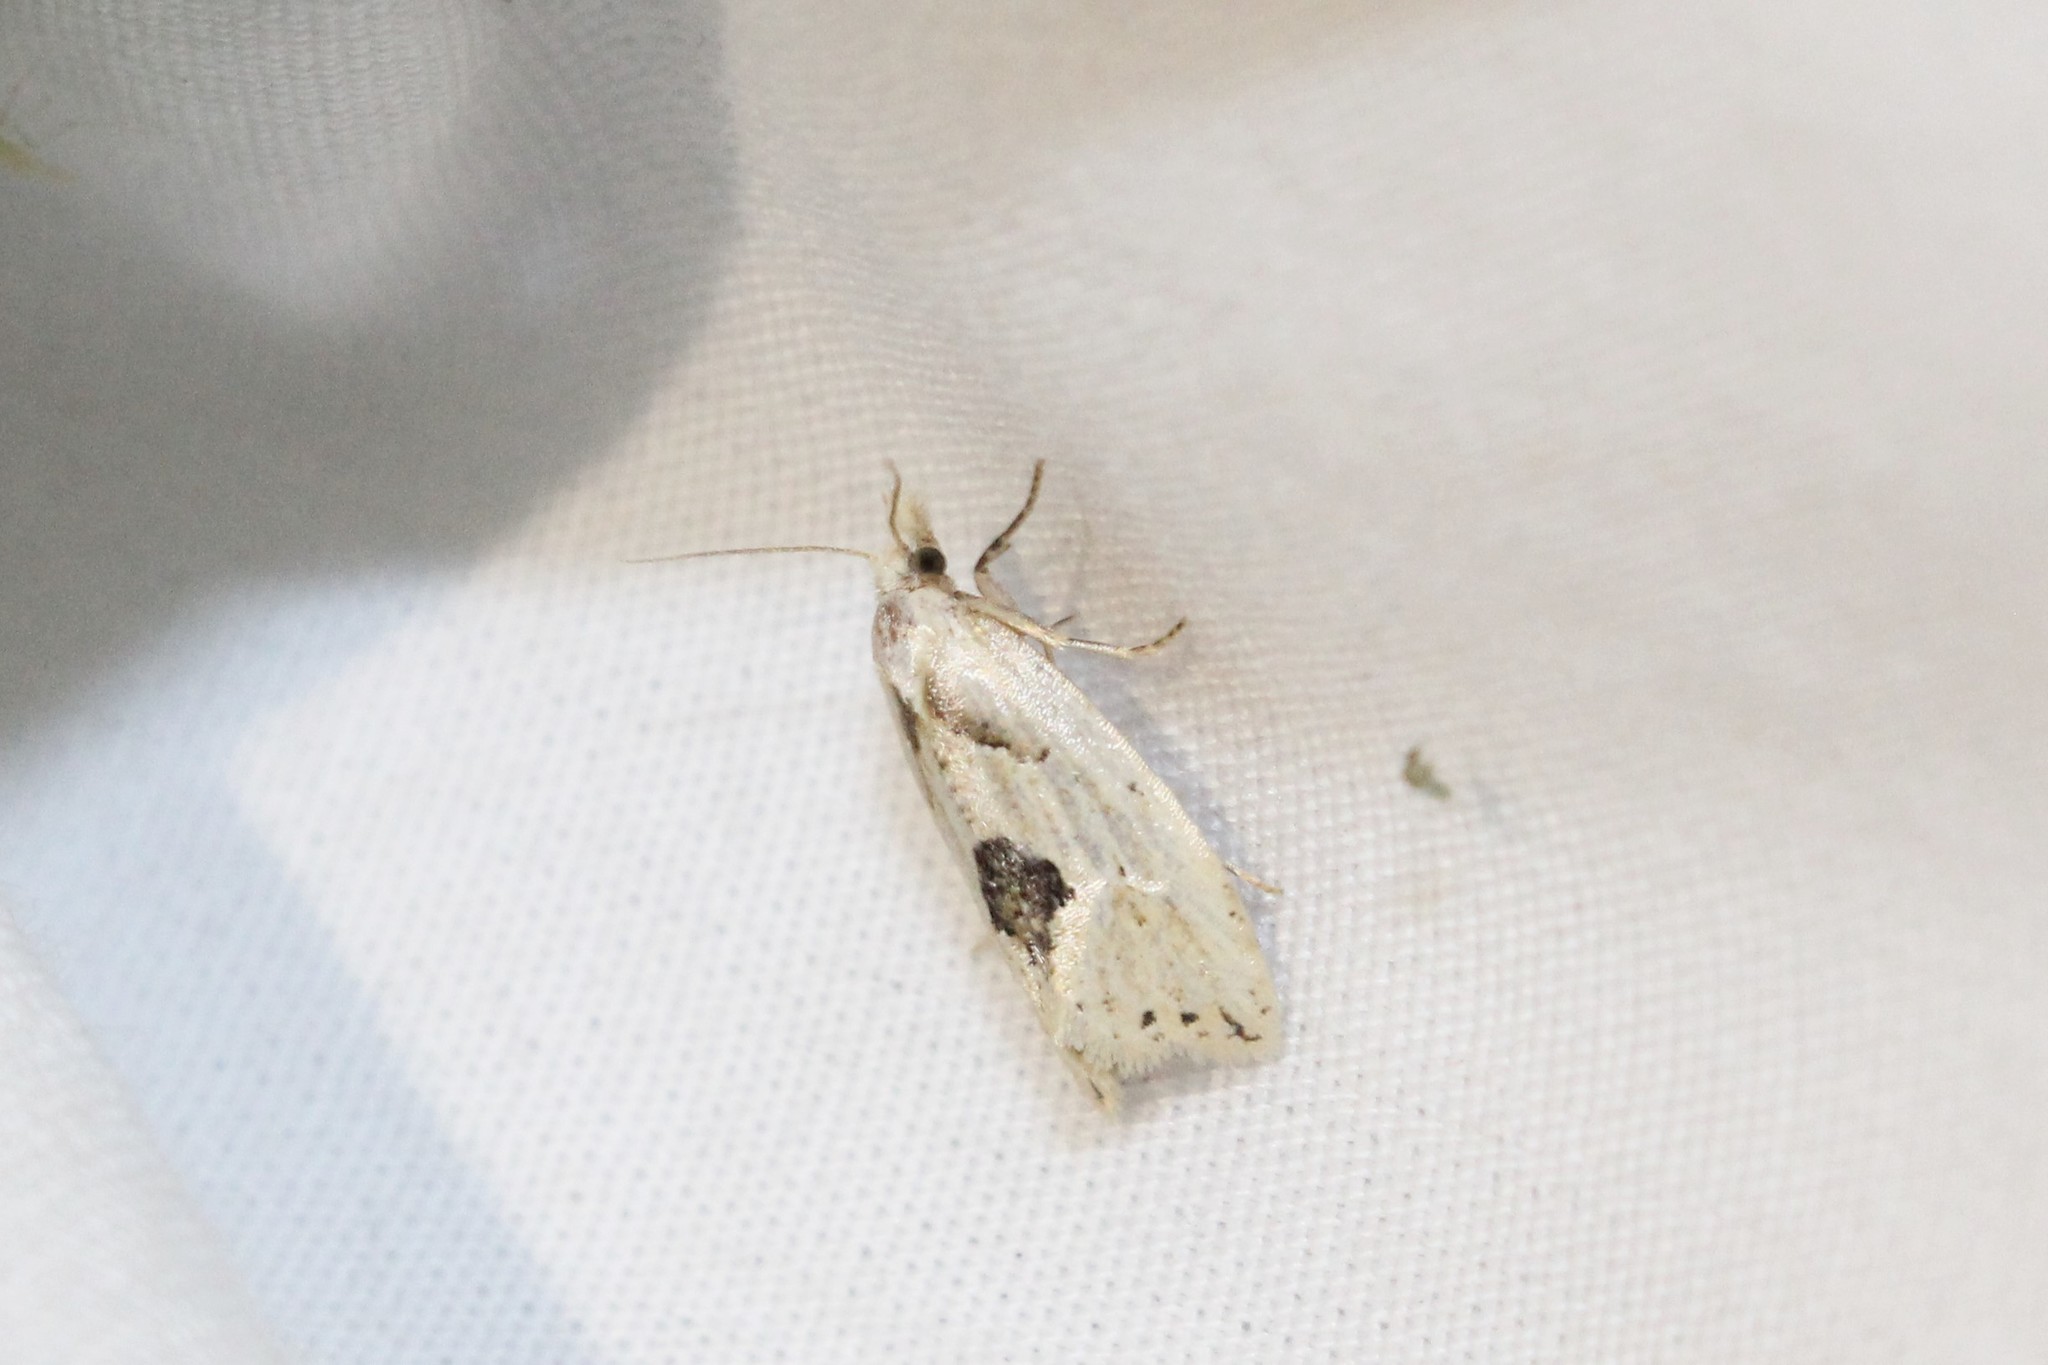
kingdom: Animalia
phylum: Arthropoda
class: Insecta
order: Lepidoptera
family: Tortricidae
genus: Aethes
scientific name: Aethes mymara
